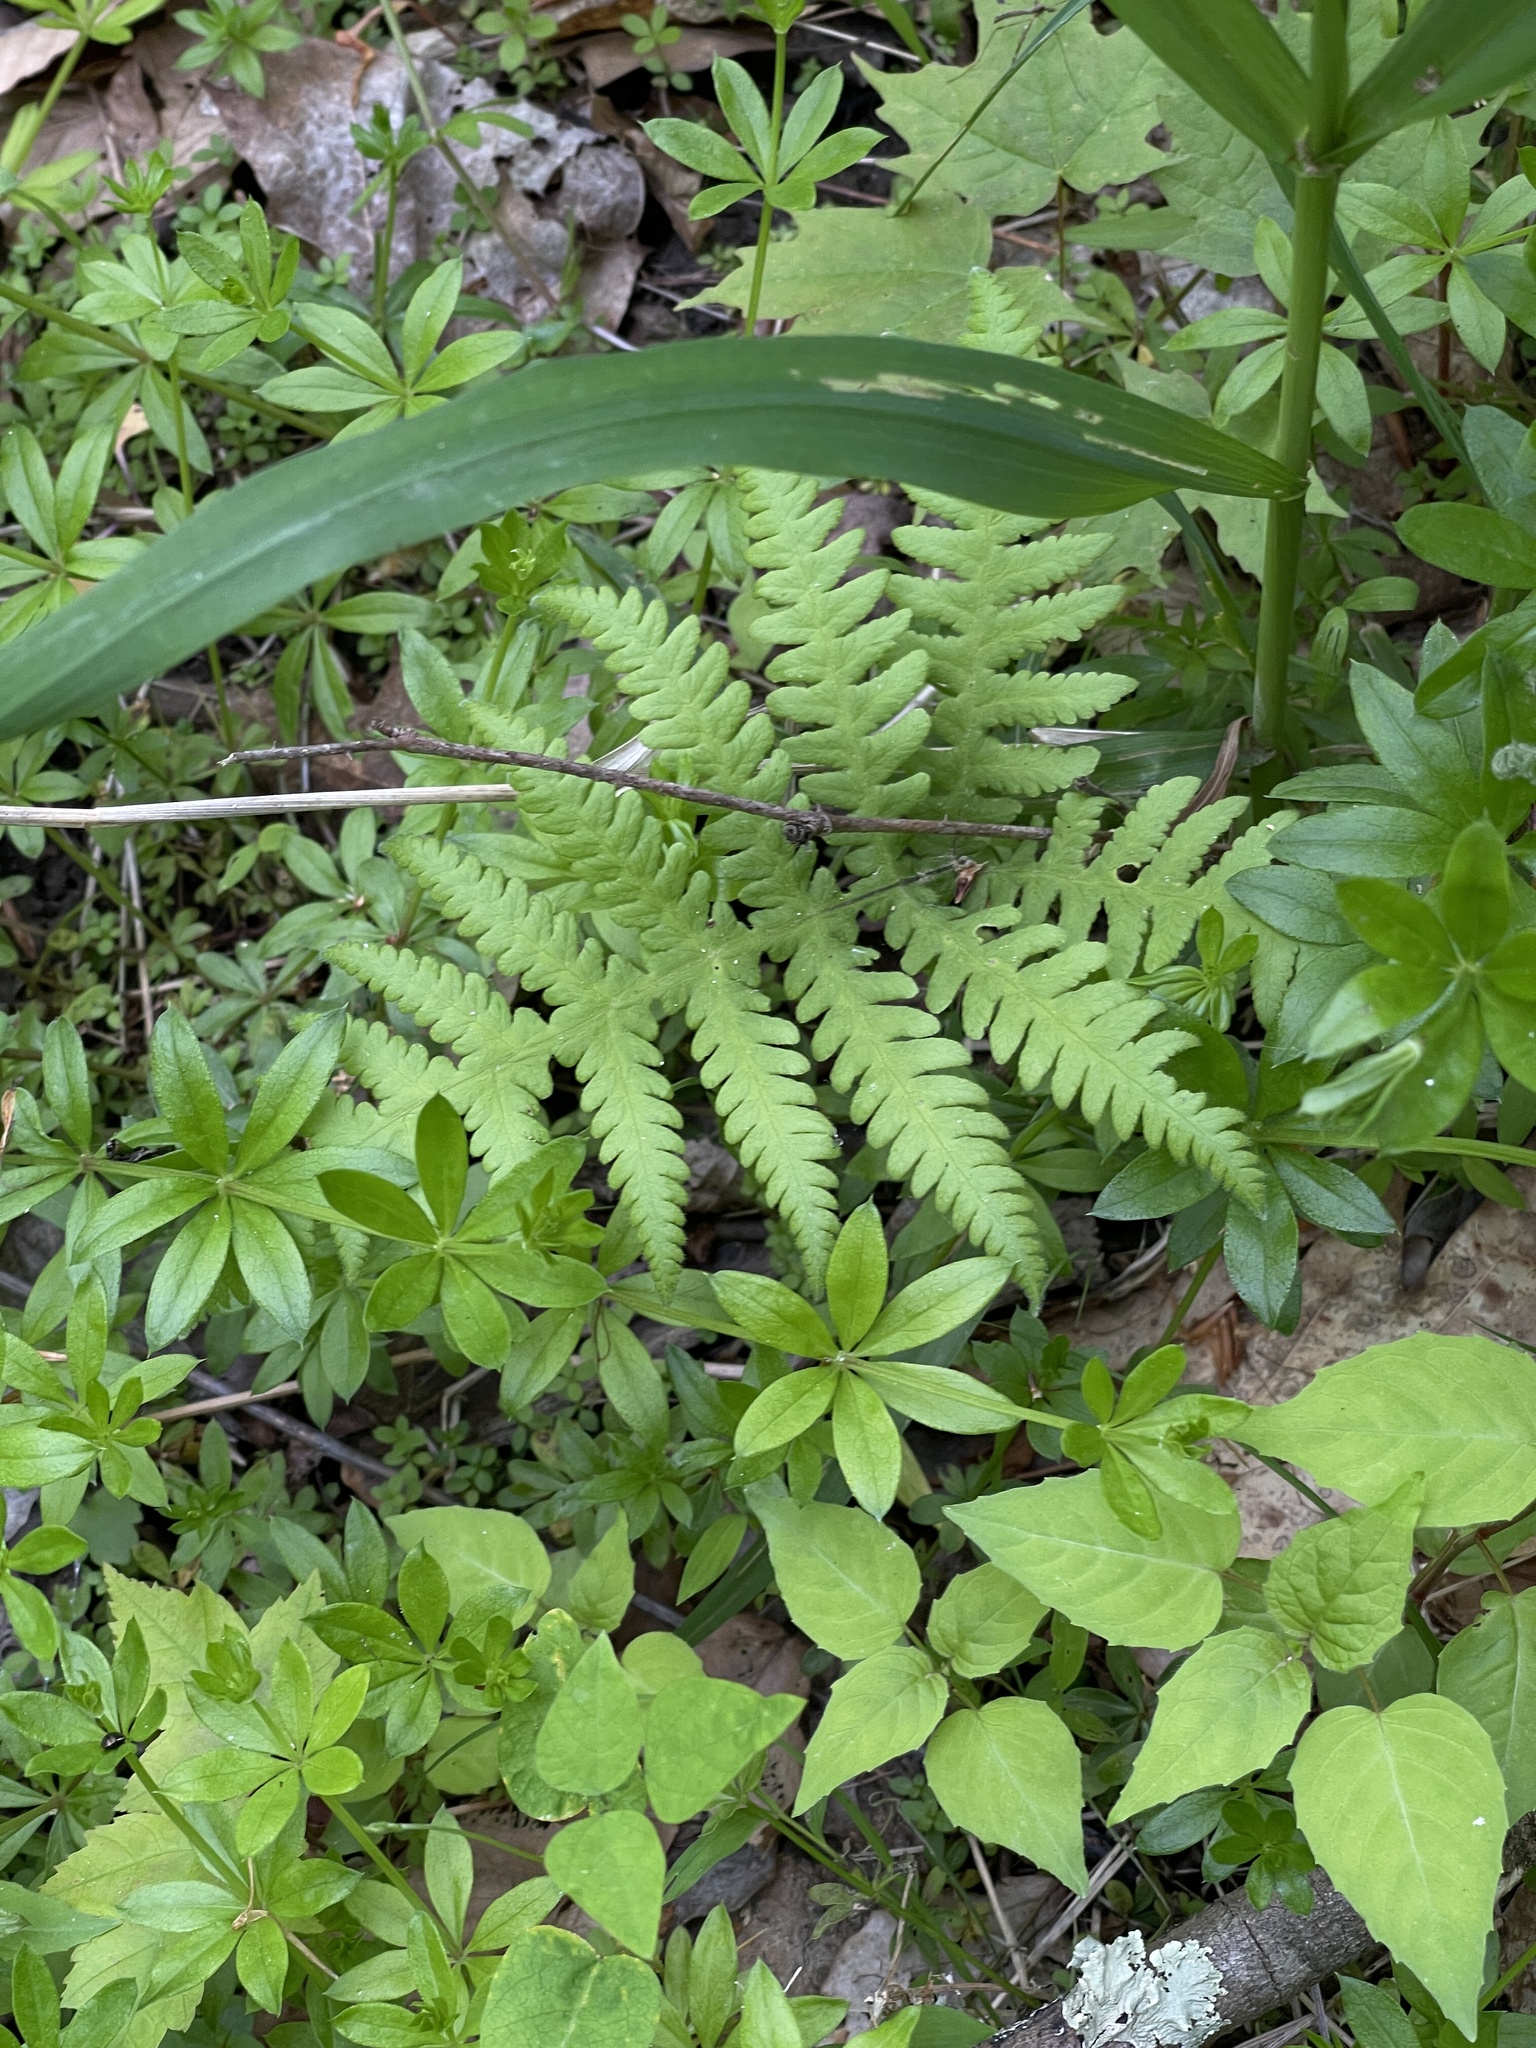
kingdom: Plantae
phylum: Tracheophyta
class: Polypodiopsida
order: Polypodiales
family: Thelypteridaceae
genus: Phegopteris
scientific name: Phegopteris hexagonoptera
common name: Broad beech fern
